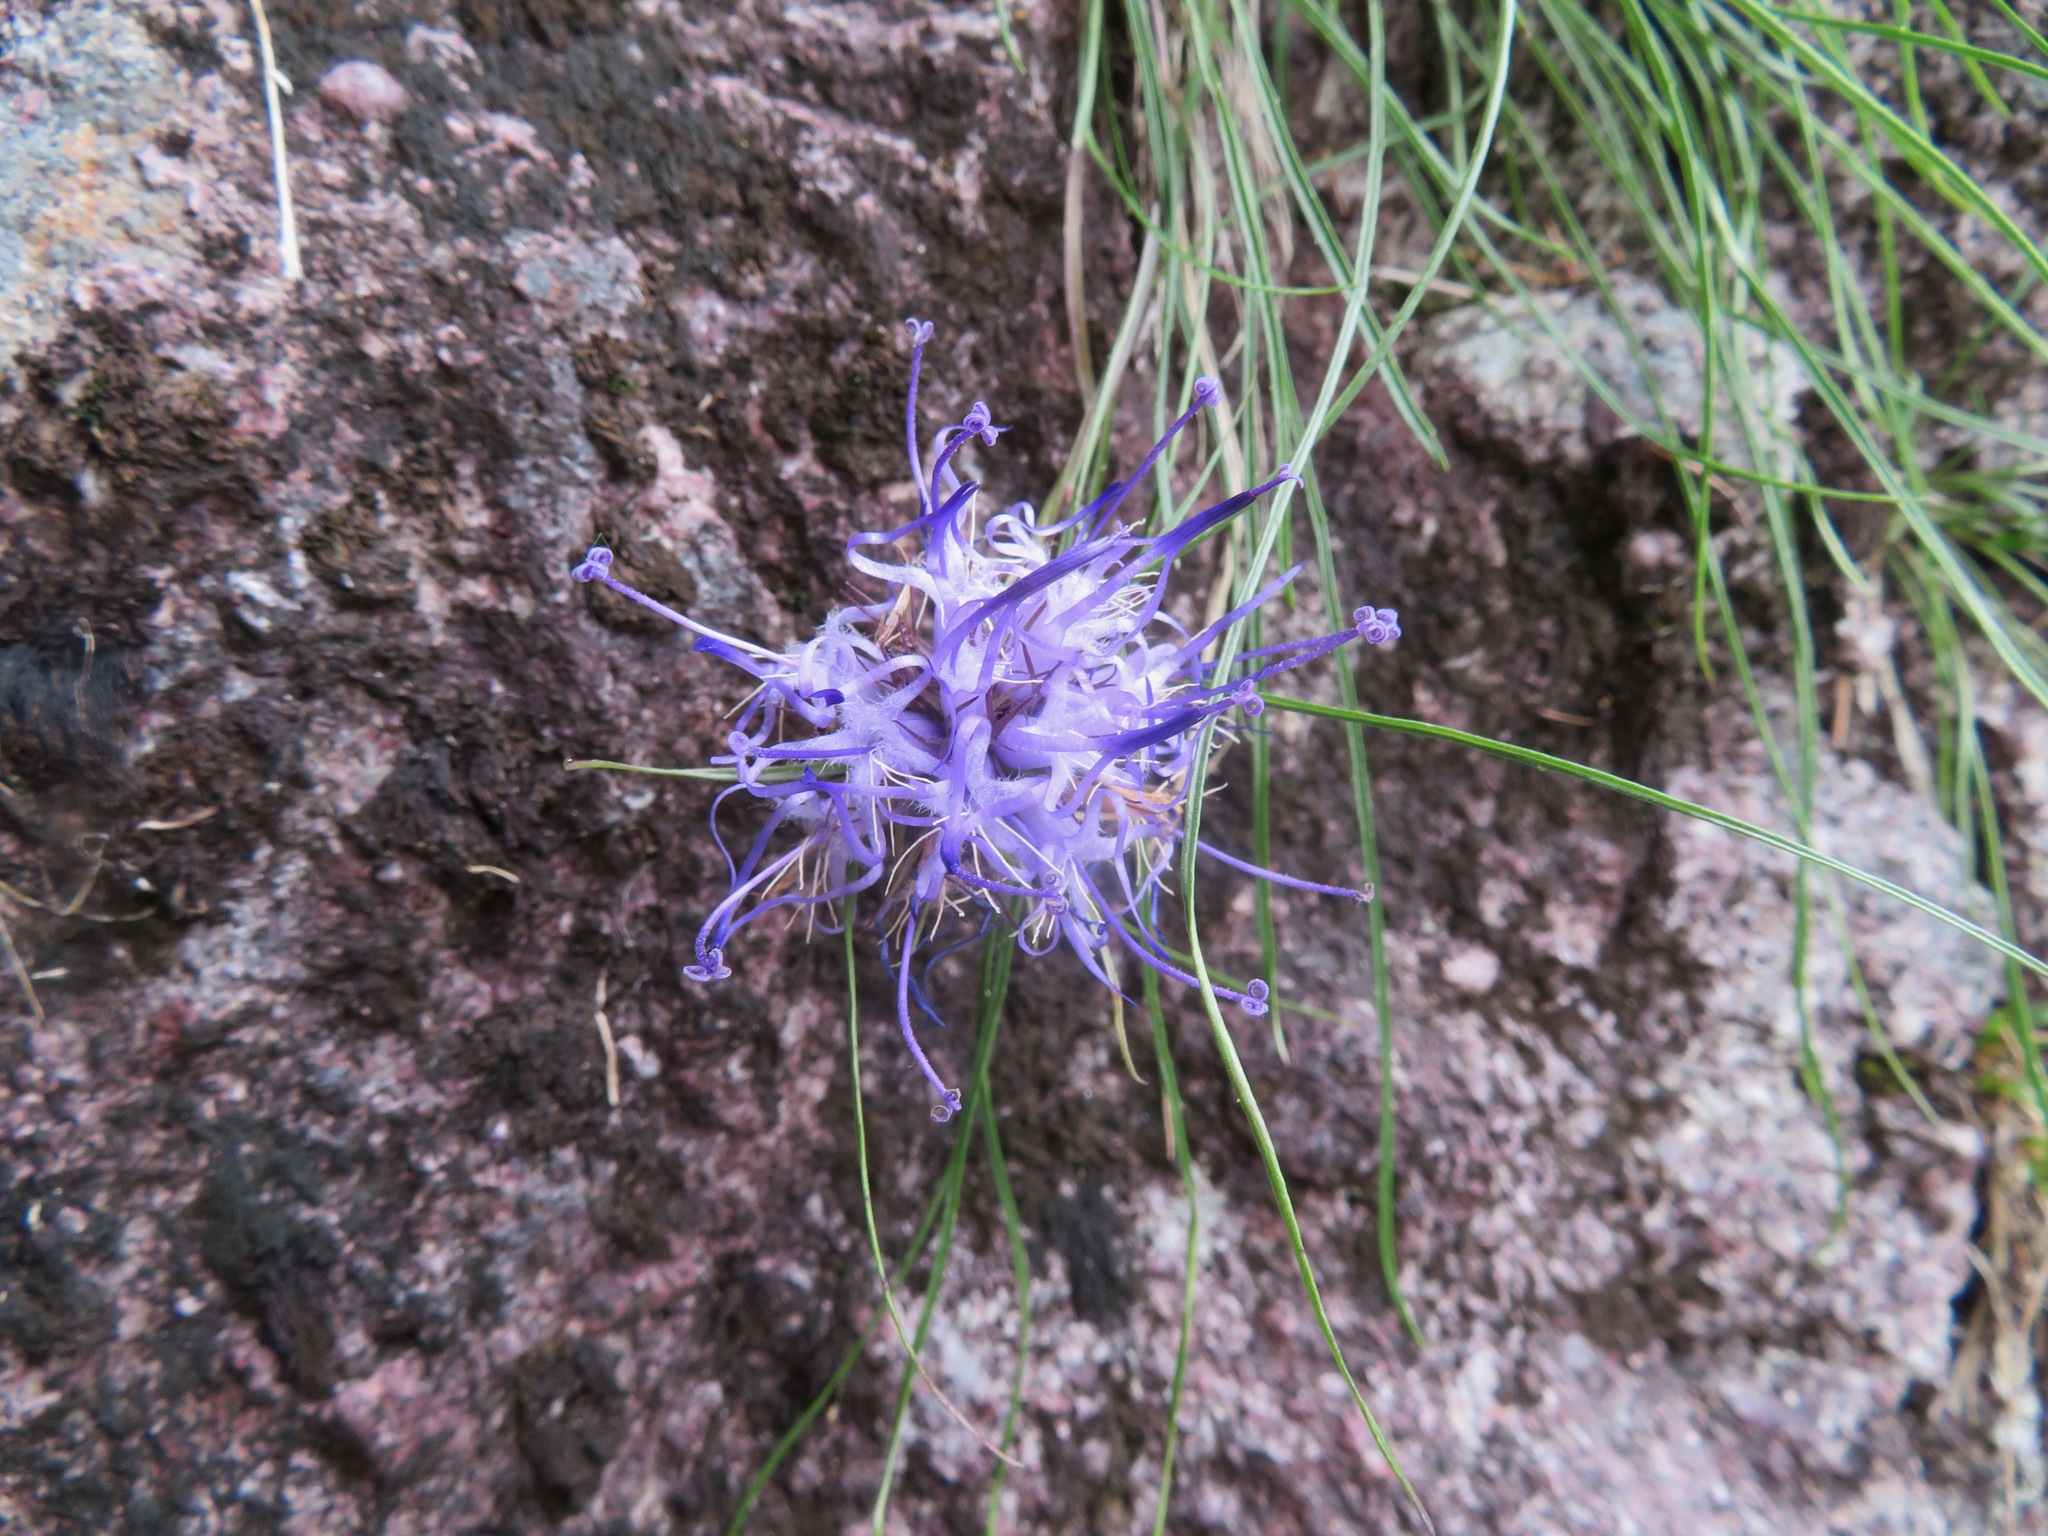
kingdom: Plantae
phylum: Tracheophyta
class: Magnoliopsida
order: Asterales
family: Campanulaceae
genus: Phyteuma
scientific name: Phyteuma hedraianthifolium
